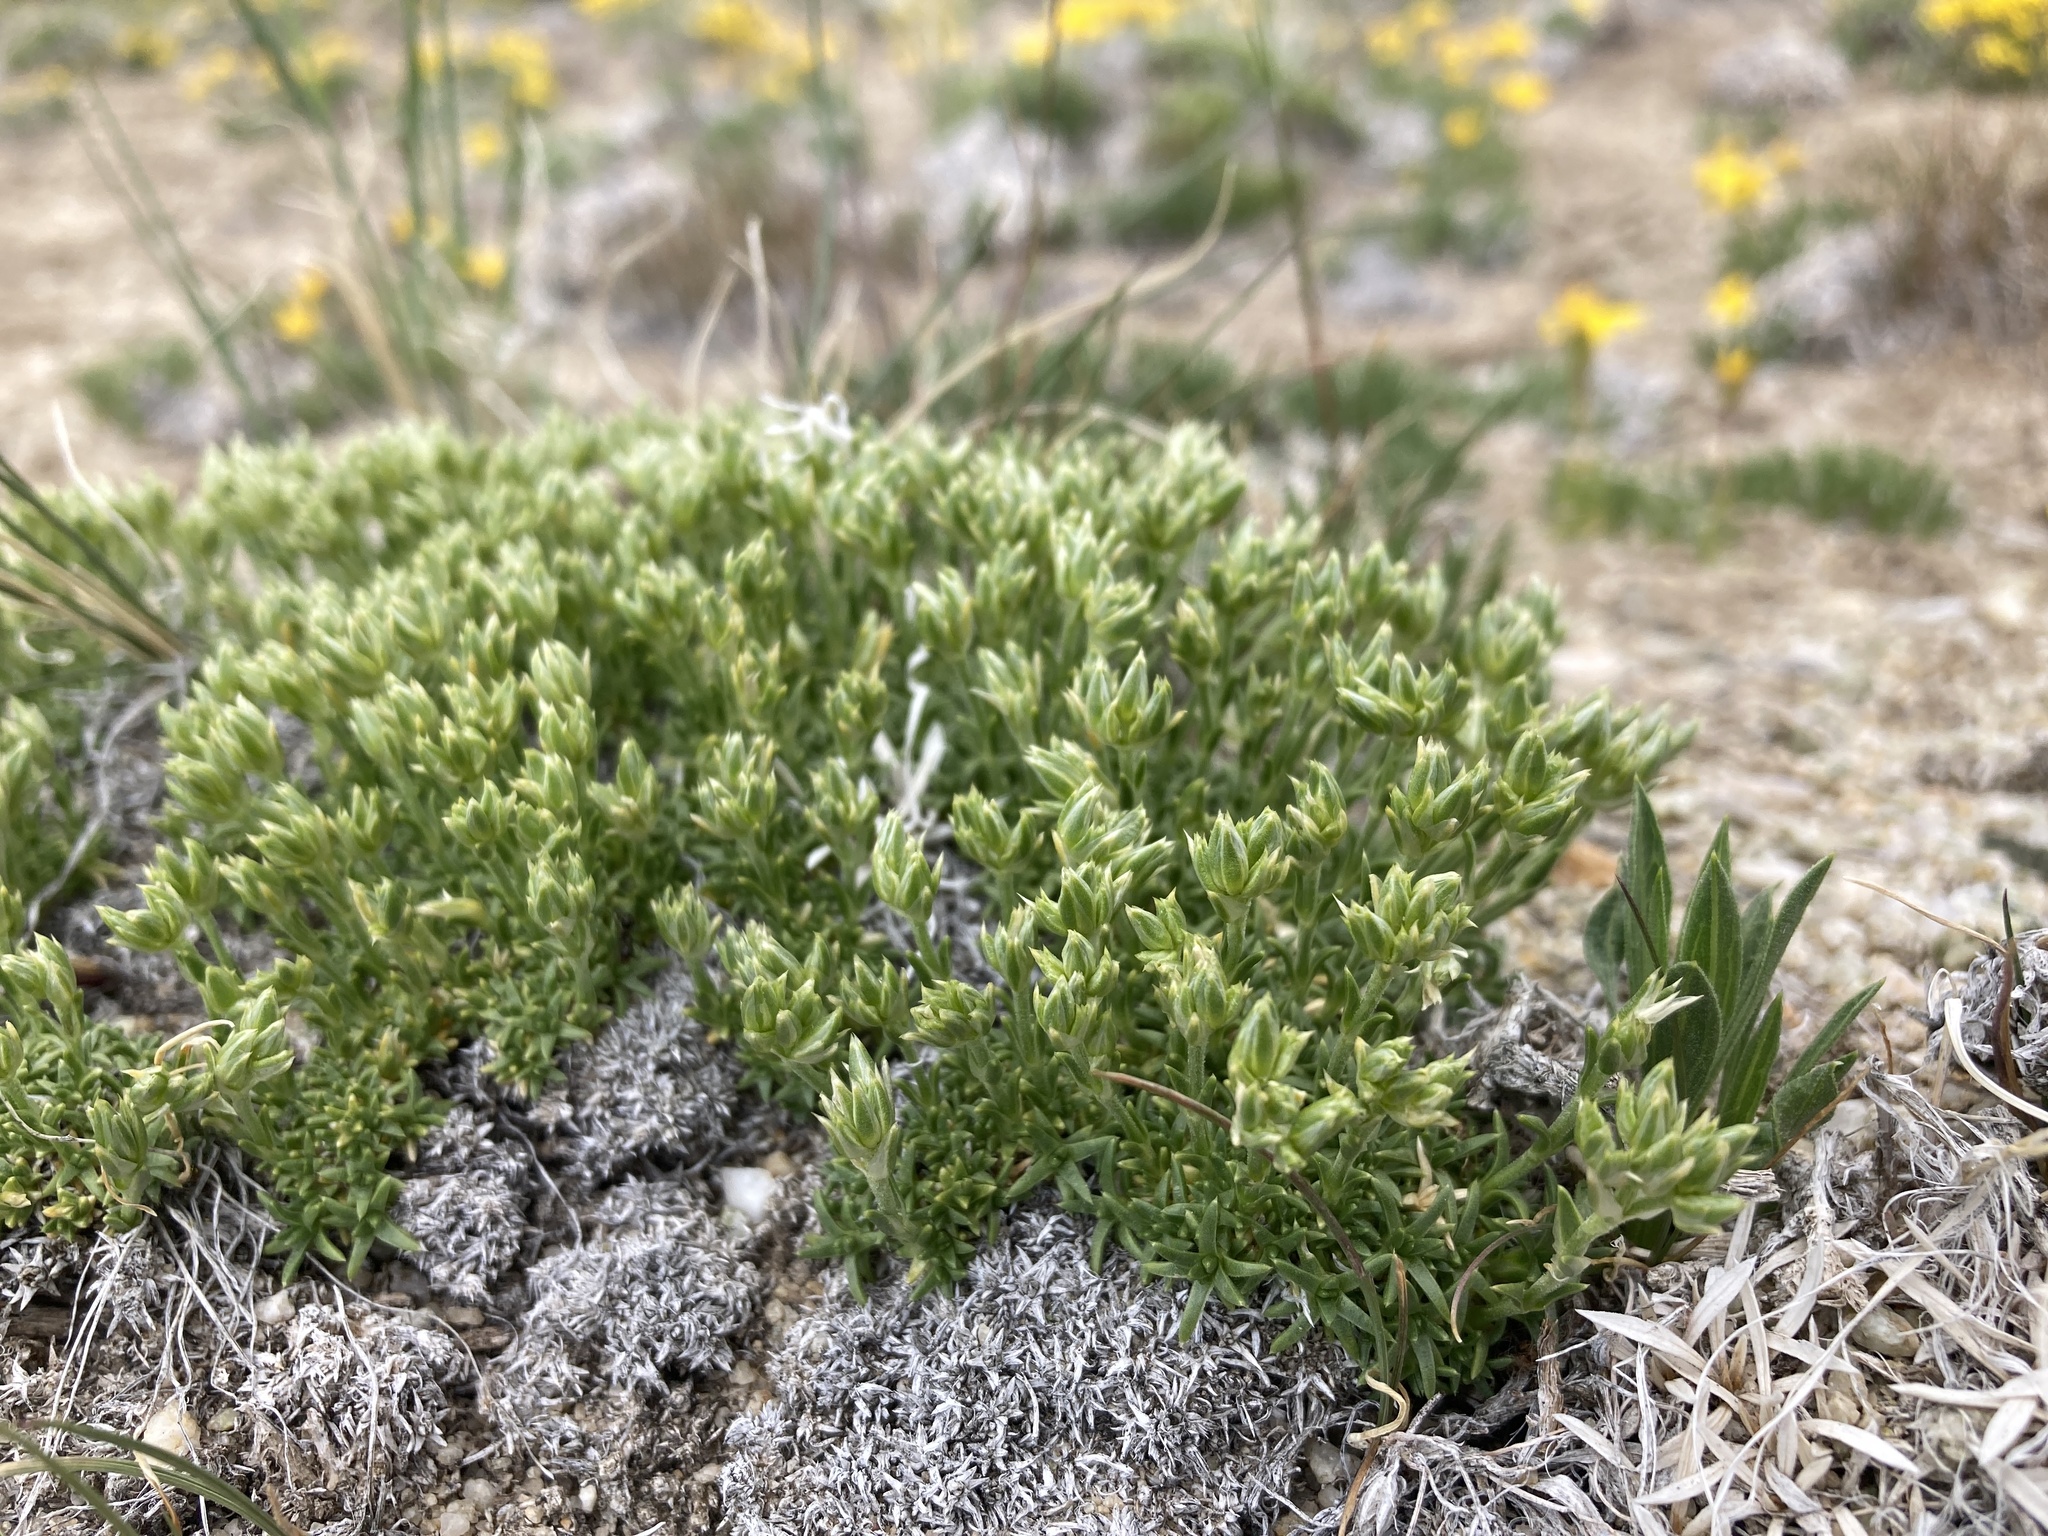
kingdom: Plantae
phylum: Tracheophyta
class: Magnoliopsida
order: Caryophyllales
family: Caryophyllaceae
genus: Eremogone
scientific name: Eremogone hookeri
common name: Hooker's sandwort
